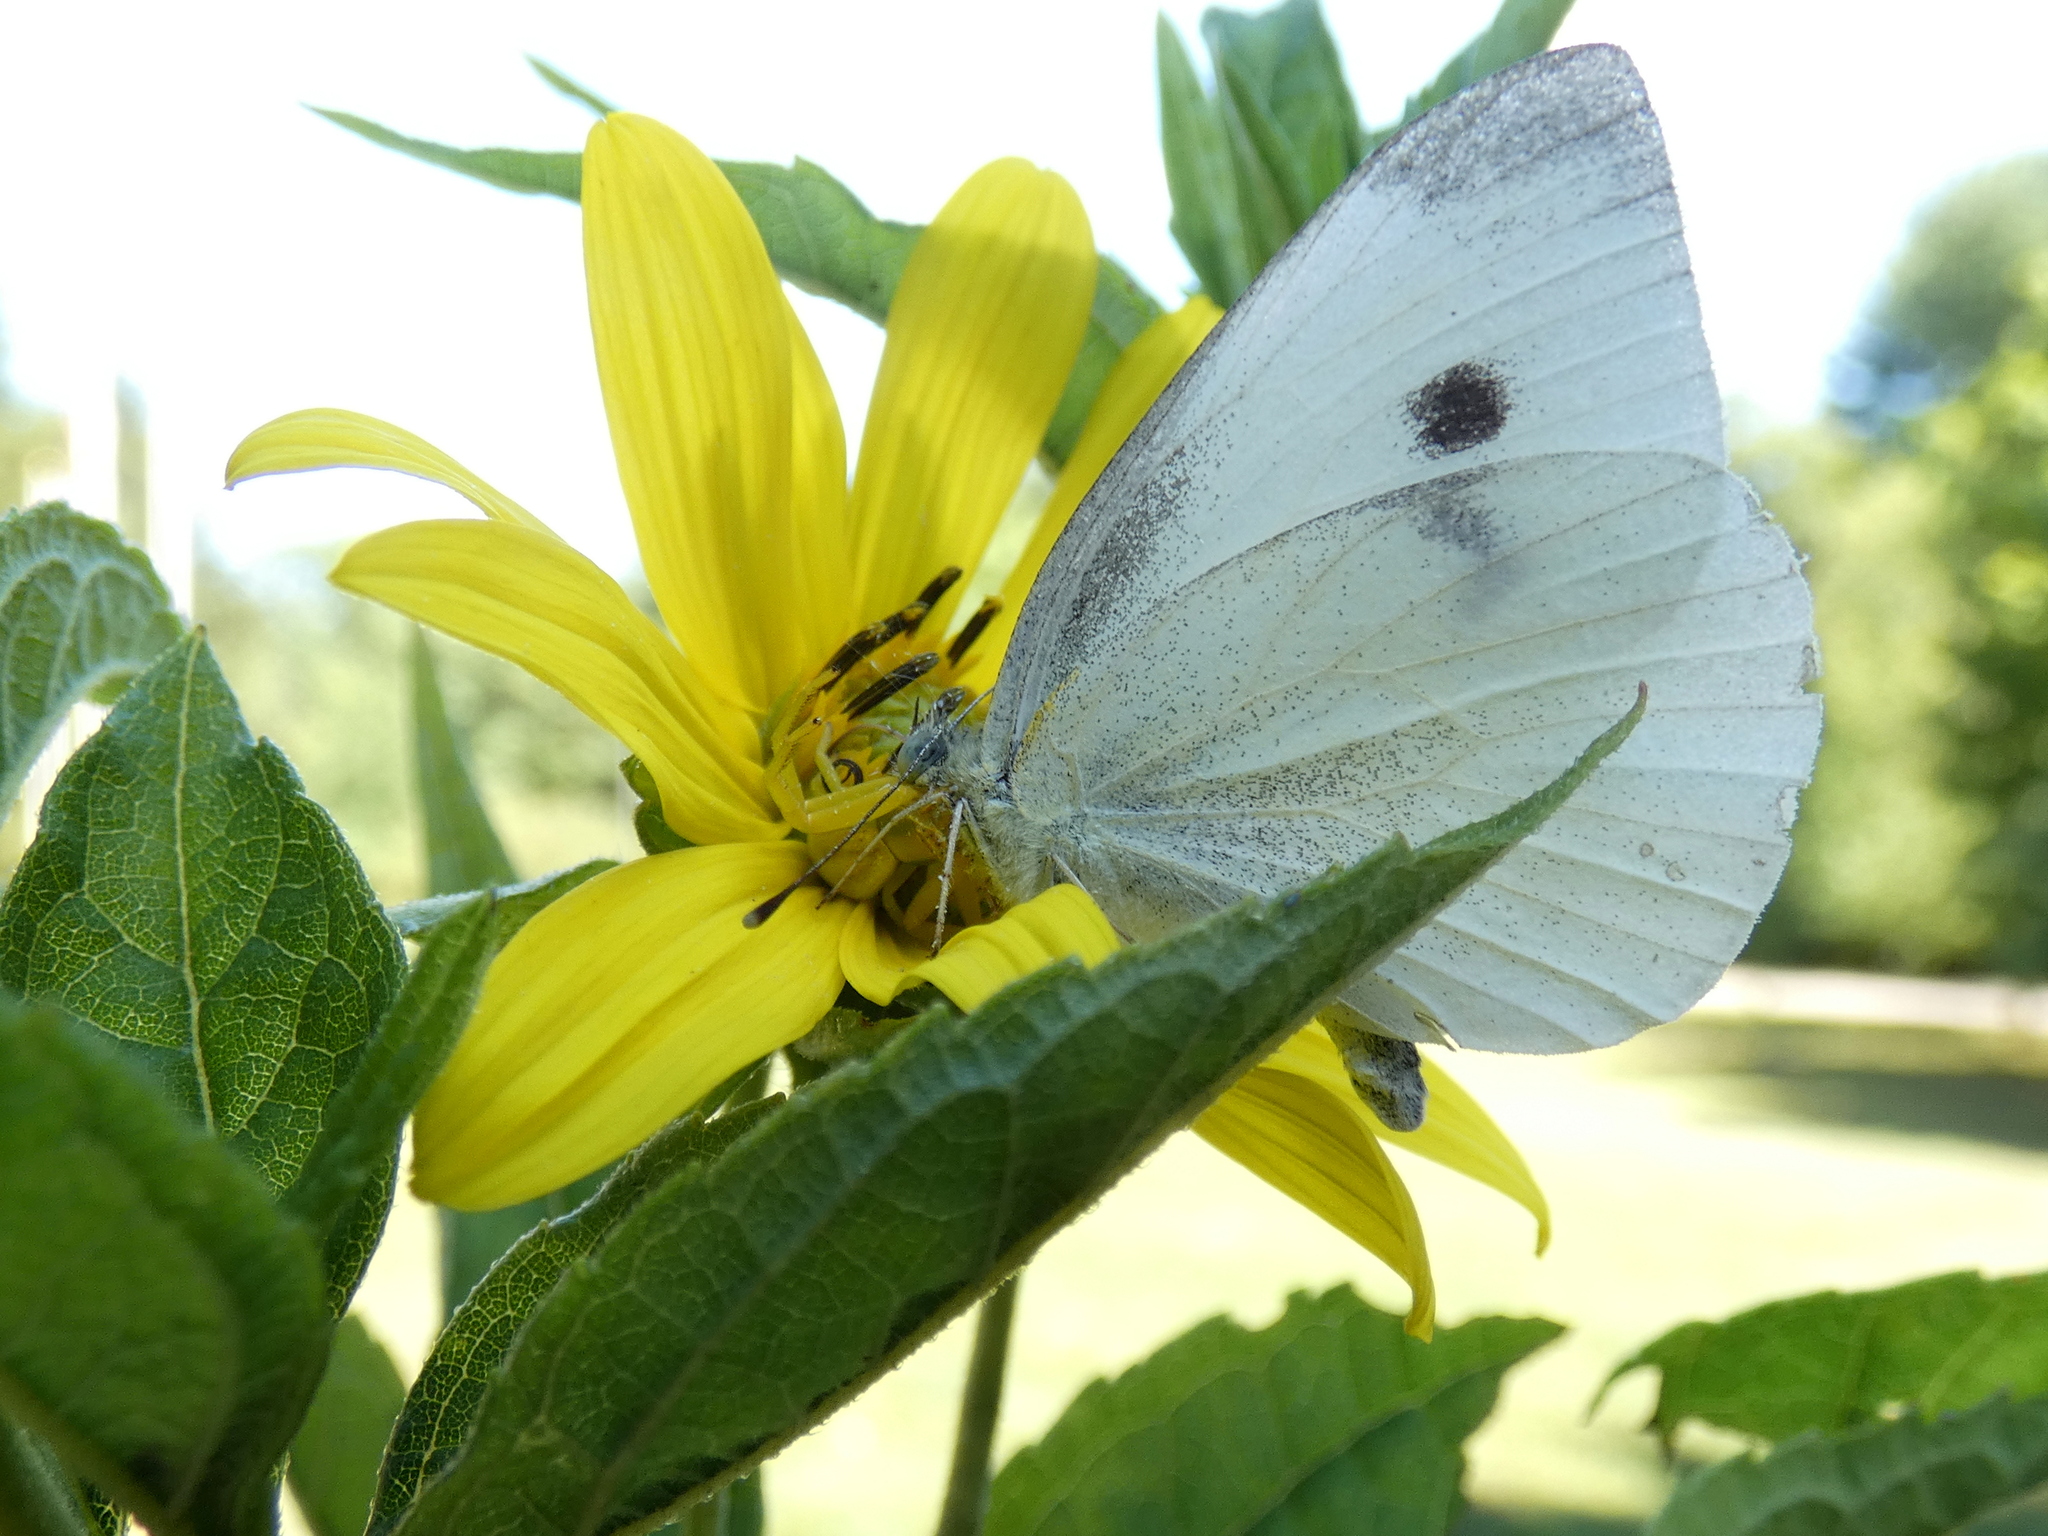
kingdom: Animalia
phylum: Arthropoda
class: Insecta
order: Lepidoptera
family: Pieridae
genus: Pieris
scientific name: Pieris rapae
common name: Small white
